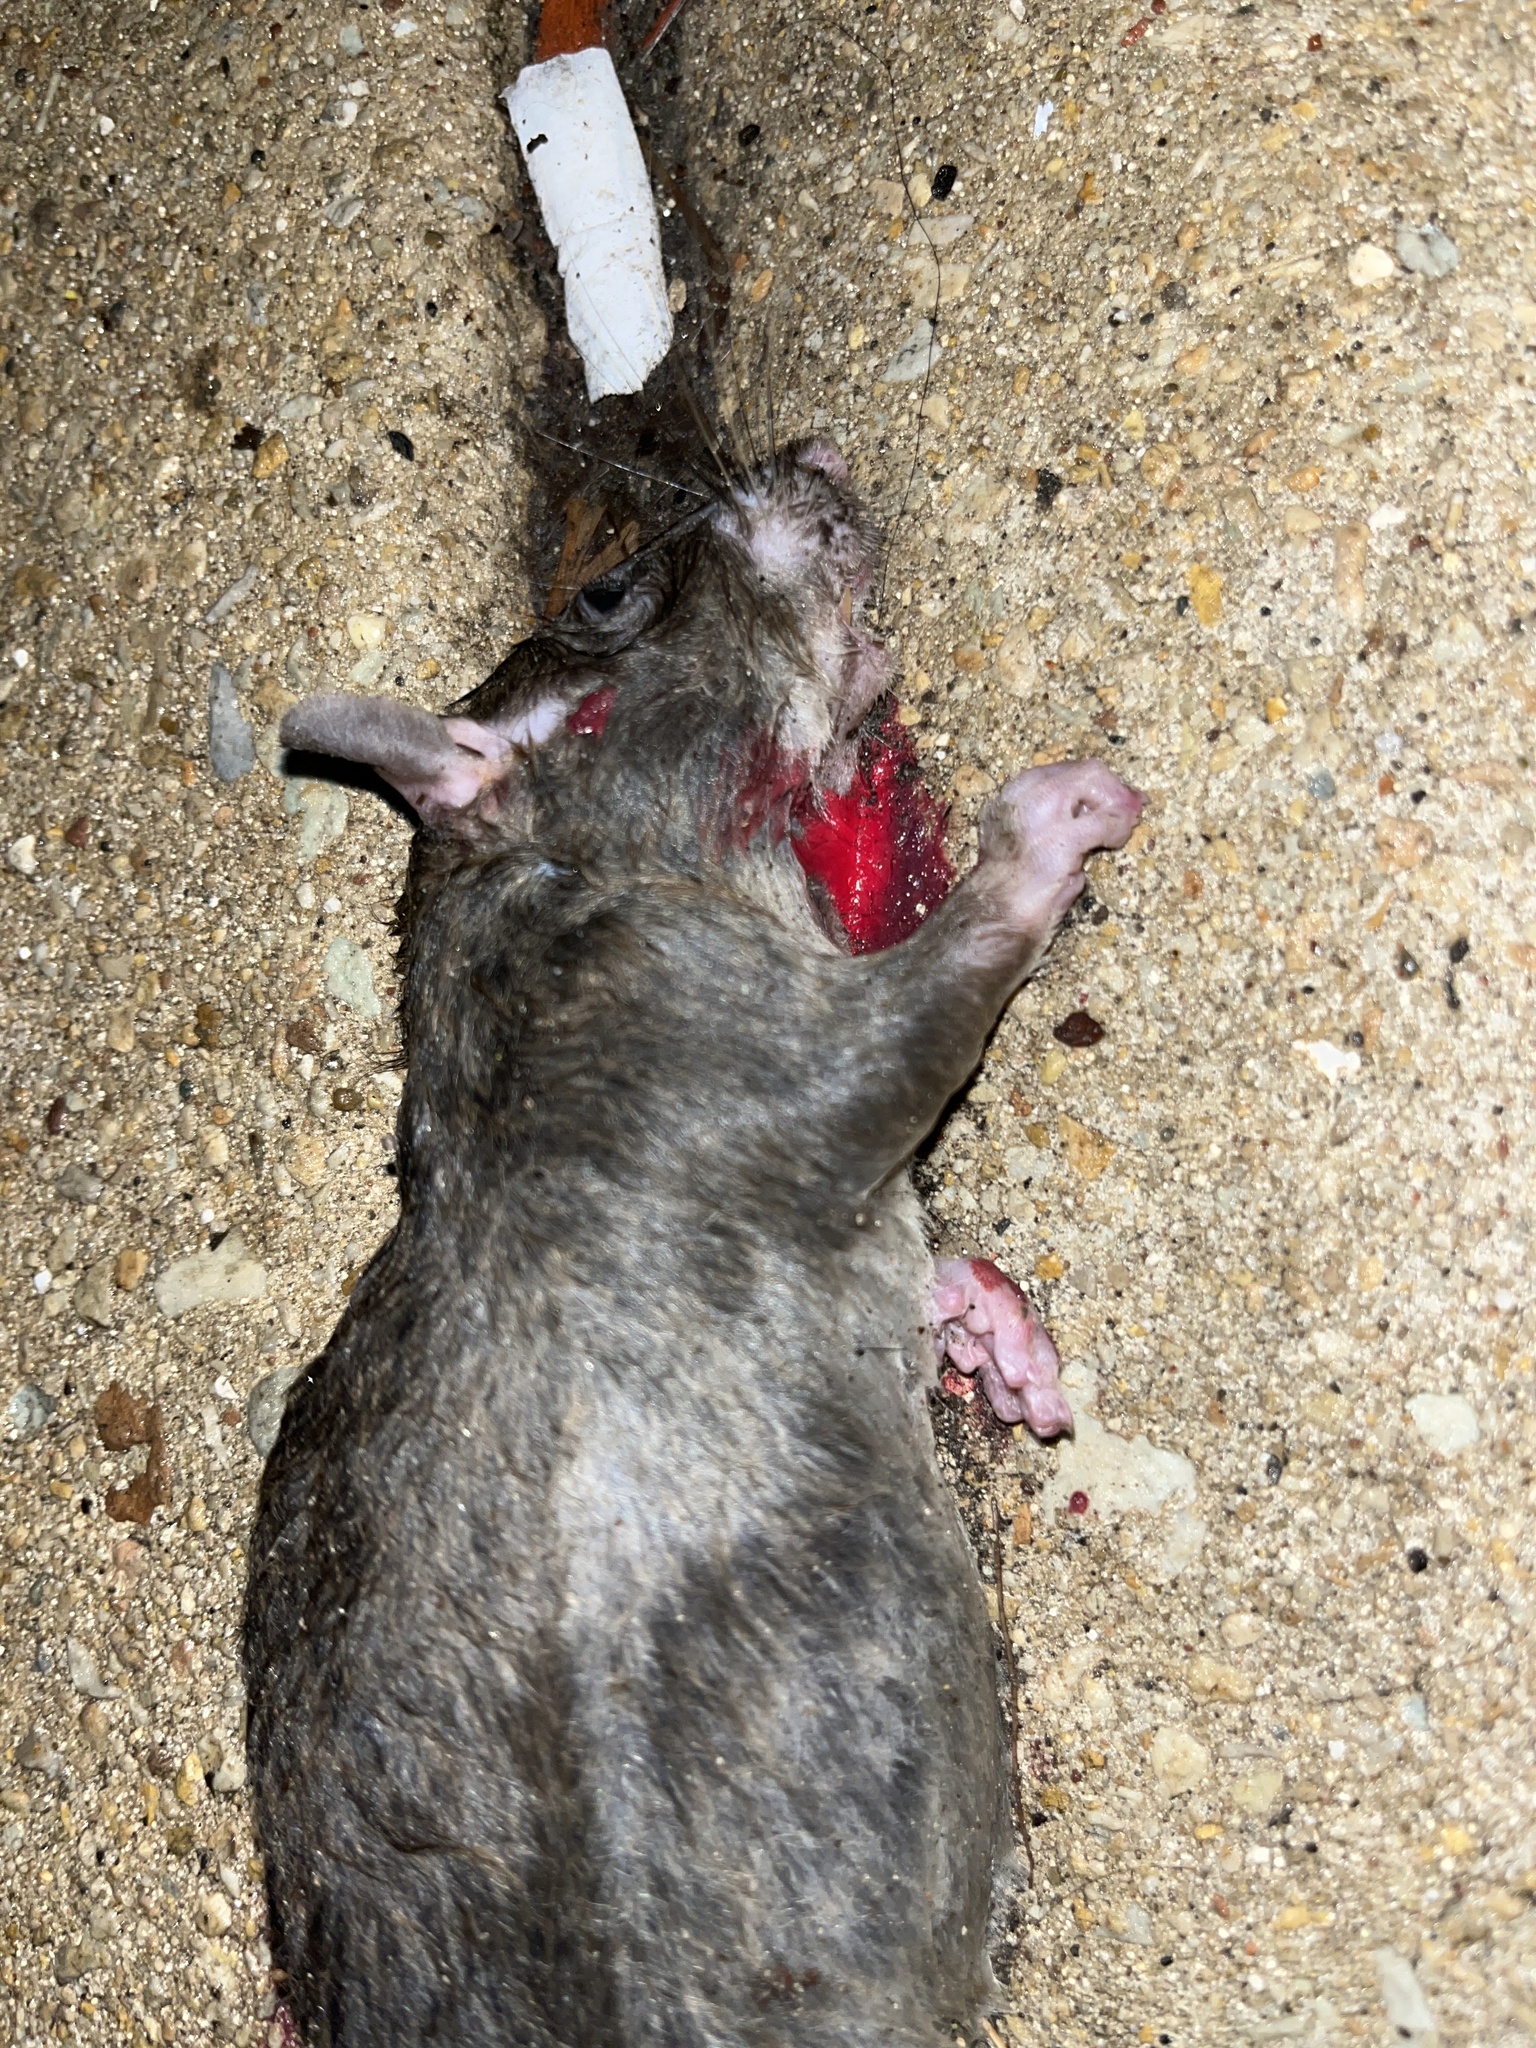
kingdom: Animalia
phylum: Chordata
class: Mammalia
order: Rodentia
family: Muridae
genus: Rattus
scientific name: Rattus norvegicus
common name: Brown rat
